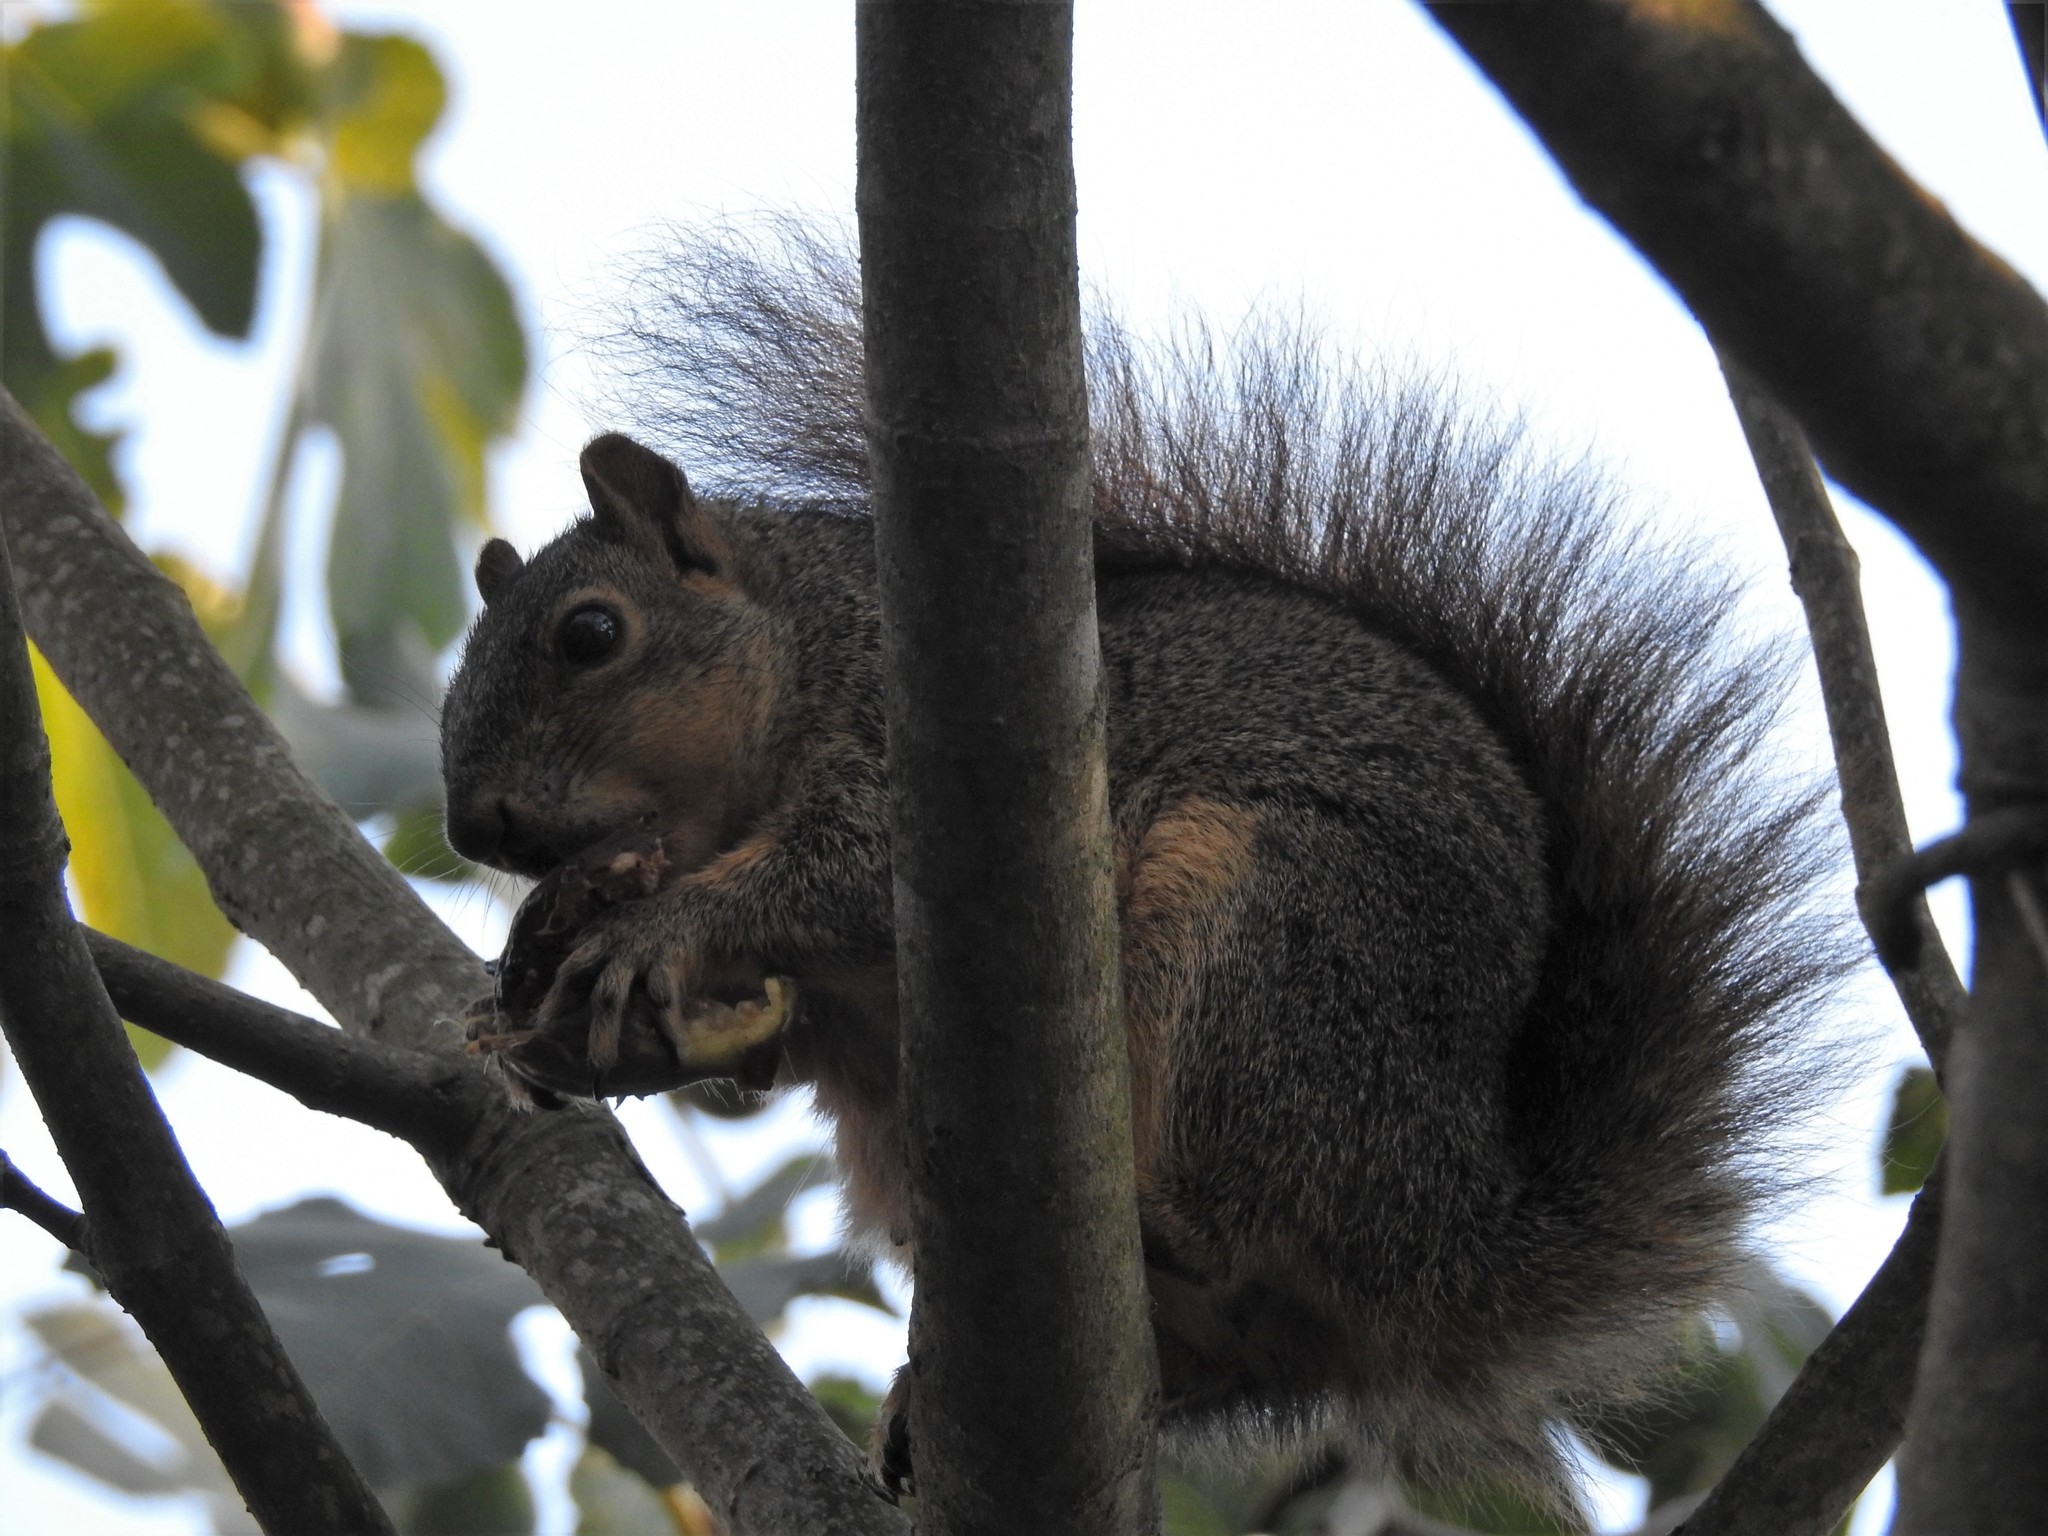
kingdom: Animalia
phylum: Chordata
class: Mammalia
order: Rodentia
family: Sciuridae
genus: Sciurus
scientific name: Sciurus niger
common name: Fox squirrel
